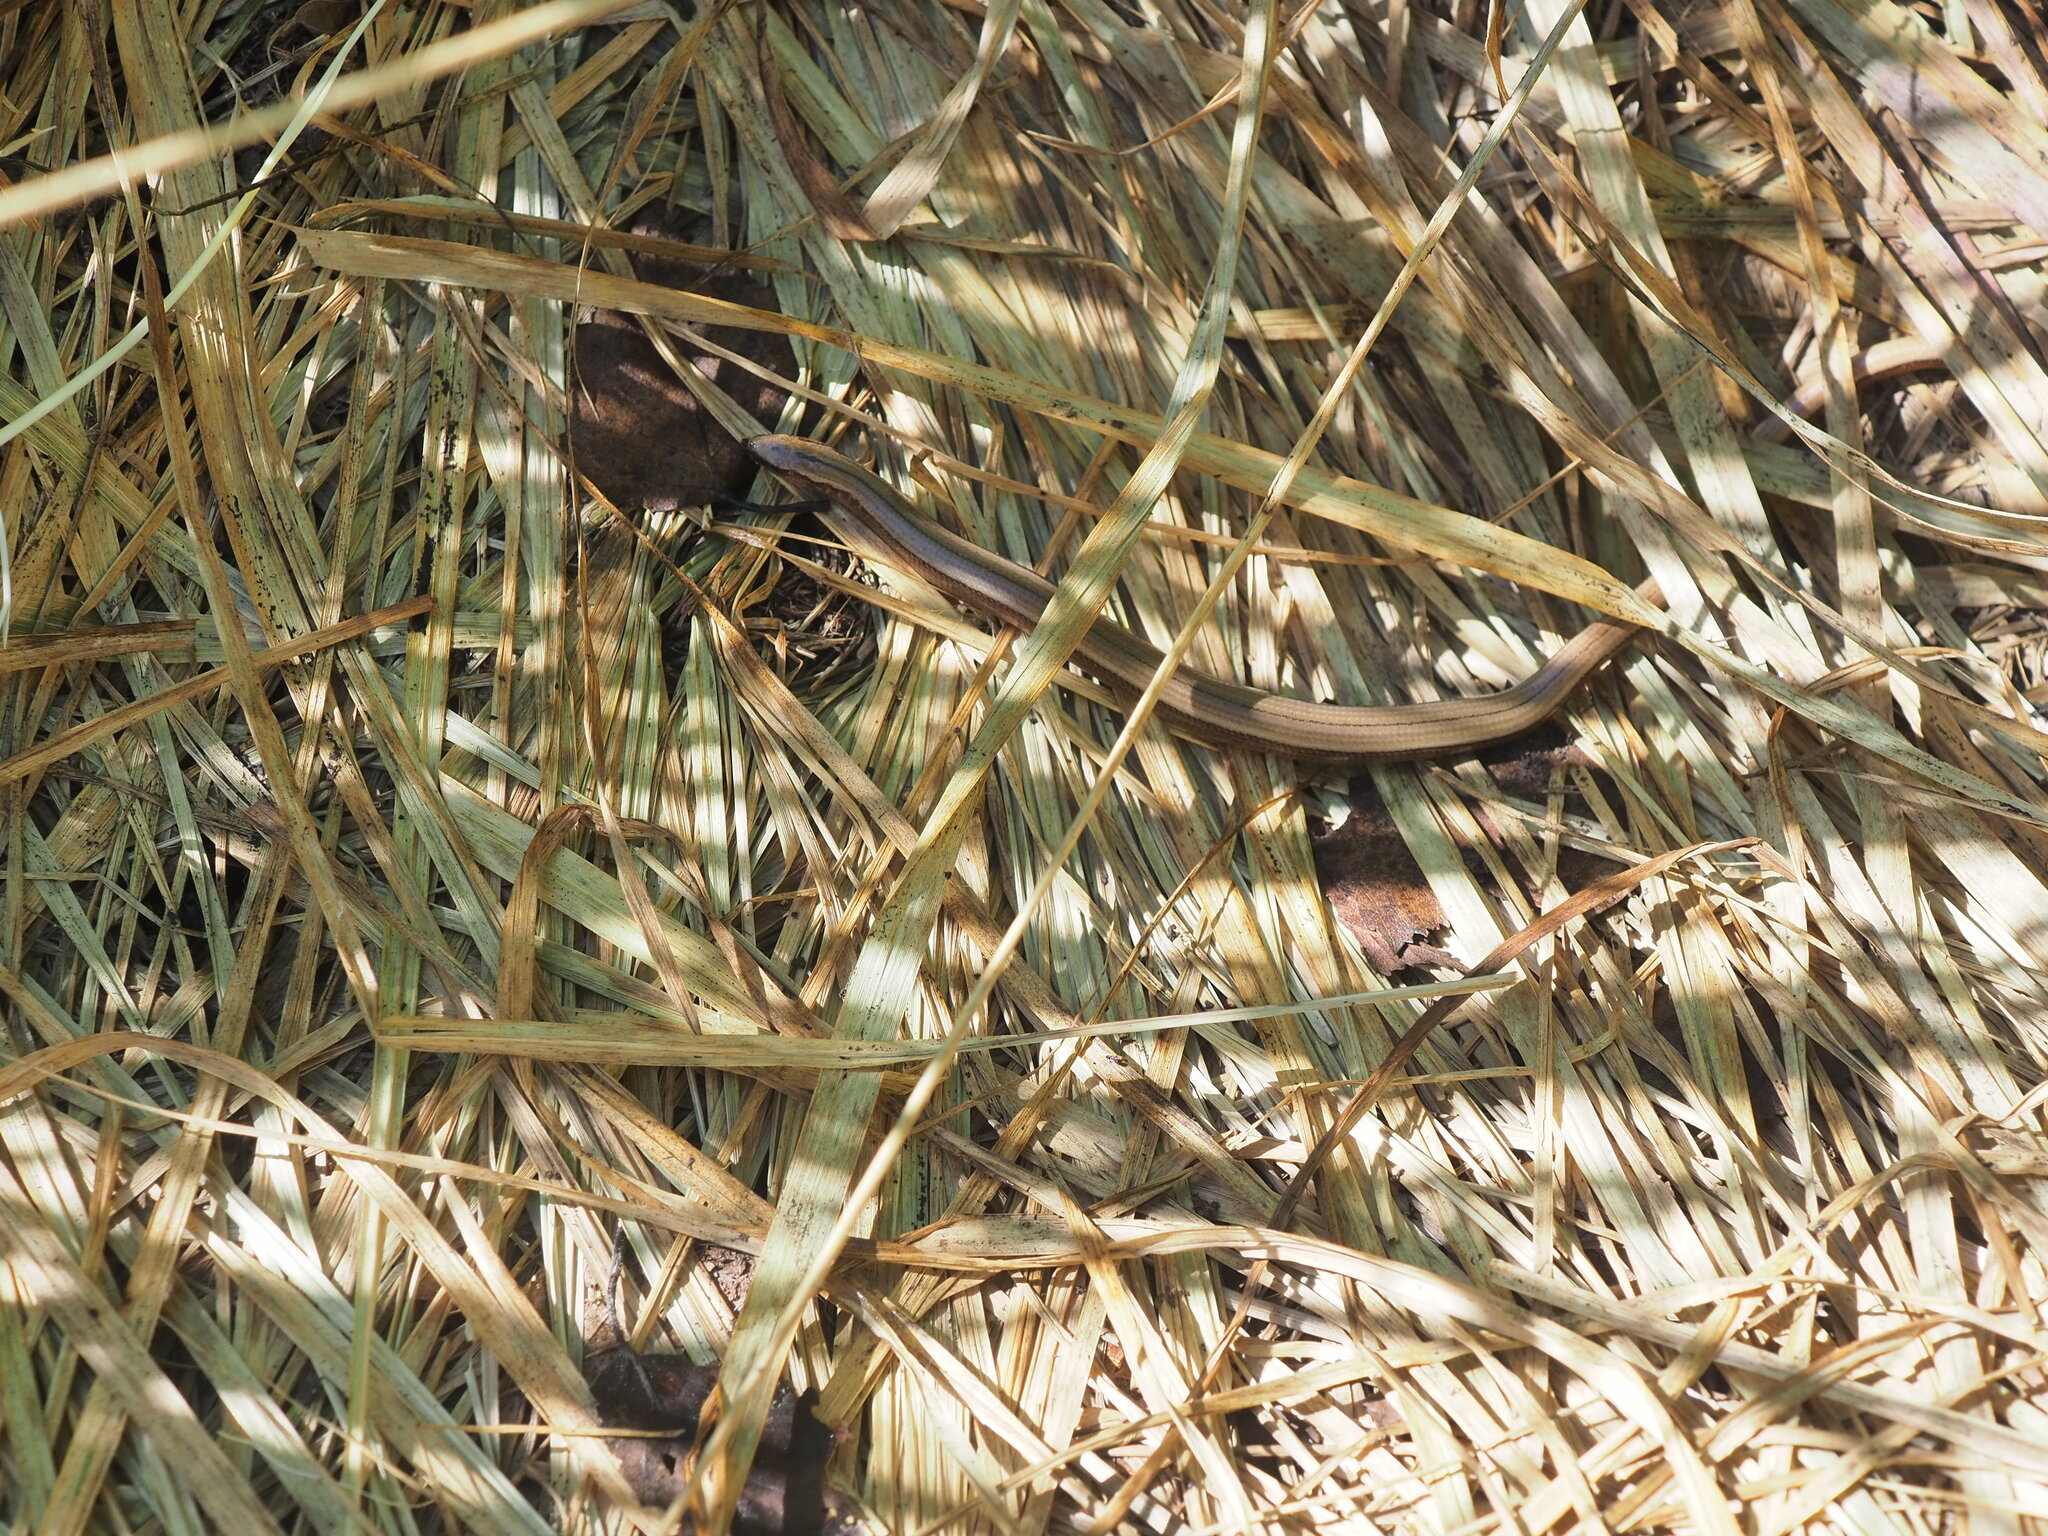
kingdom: Animalia
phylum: Chordata
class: Squamata
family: Anguidae
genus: Anguis
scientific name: Anguis fragilis
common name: Slow worm
